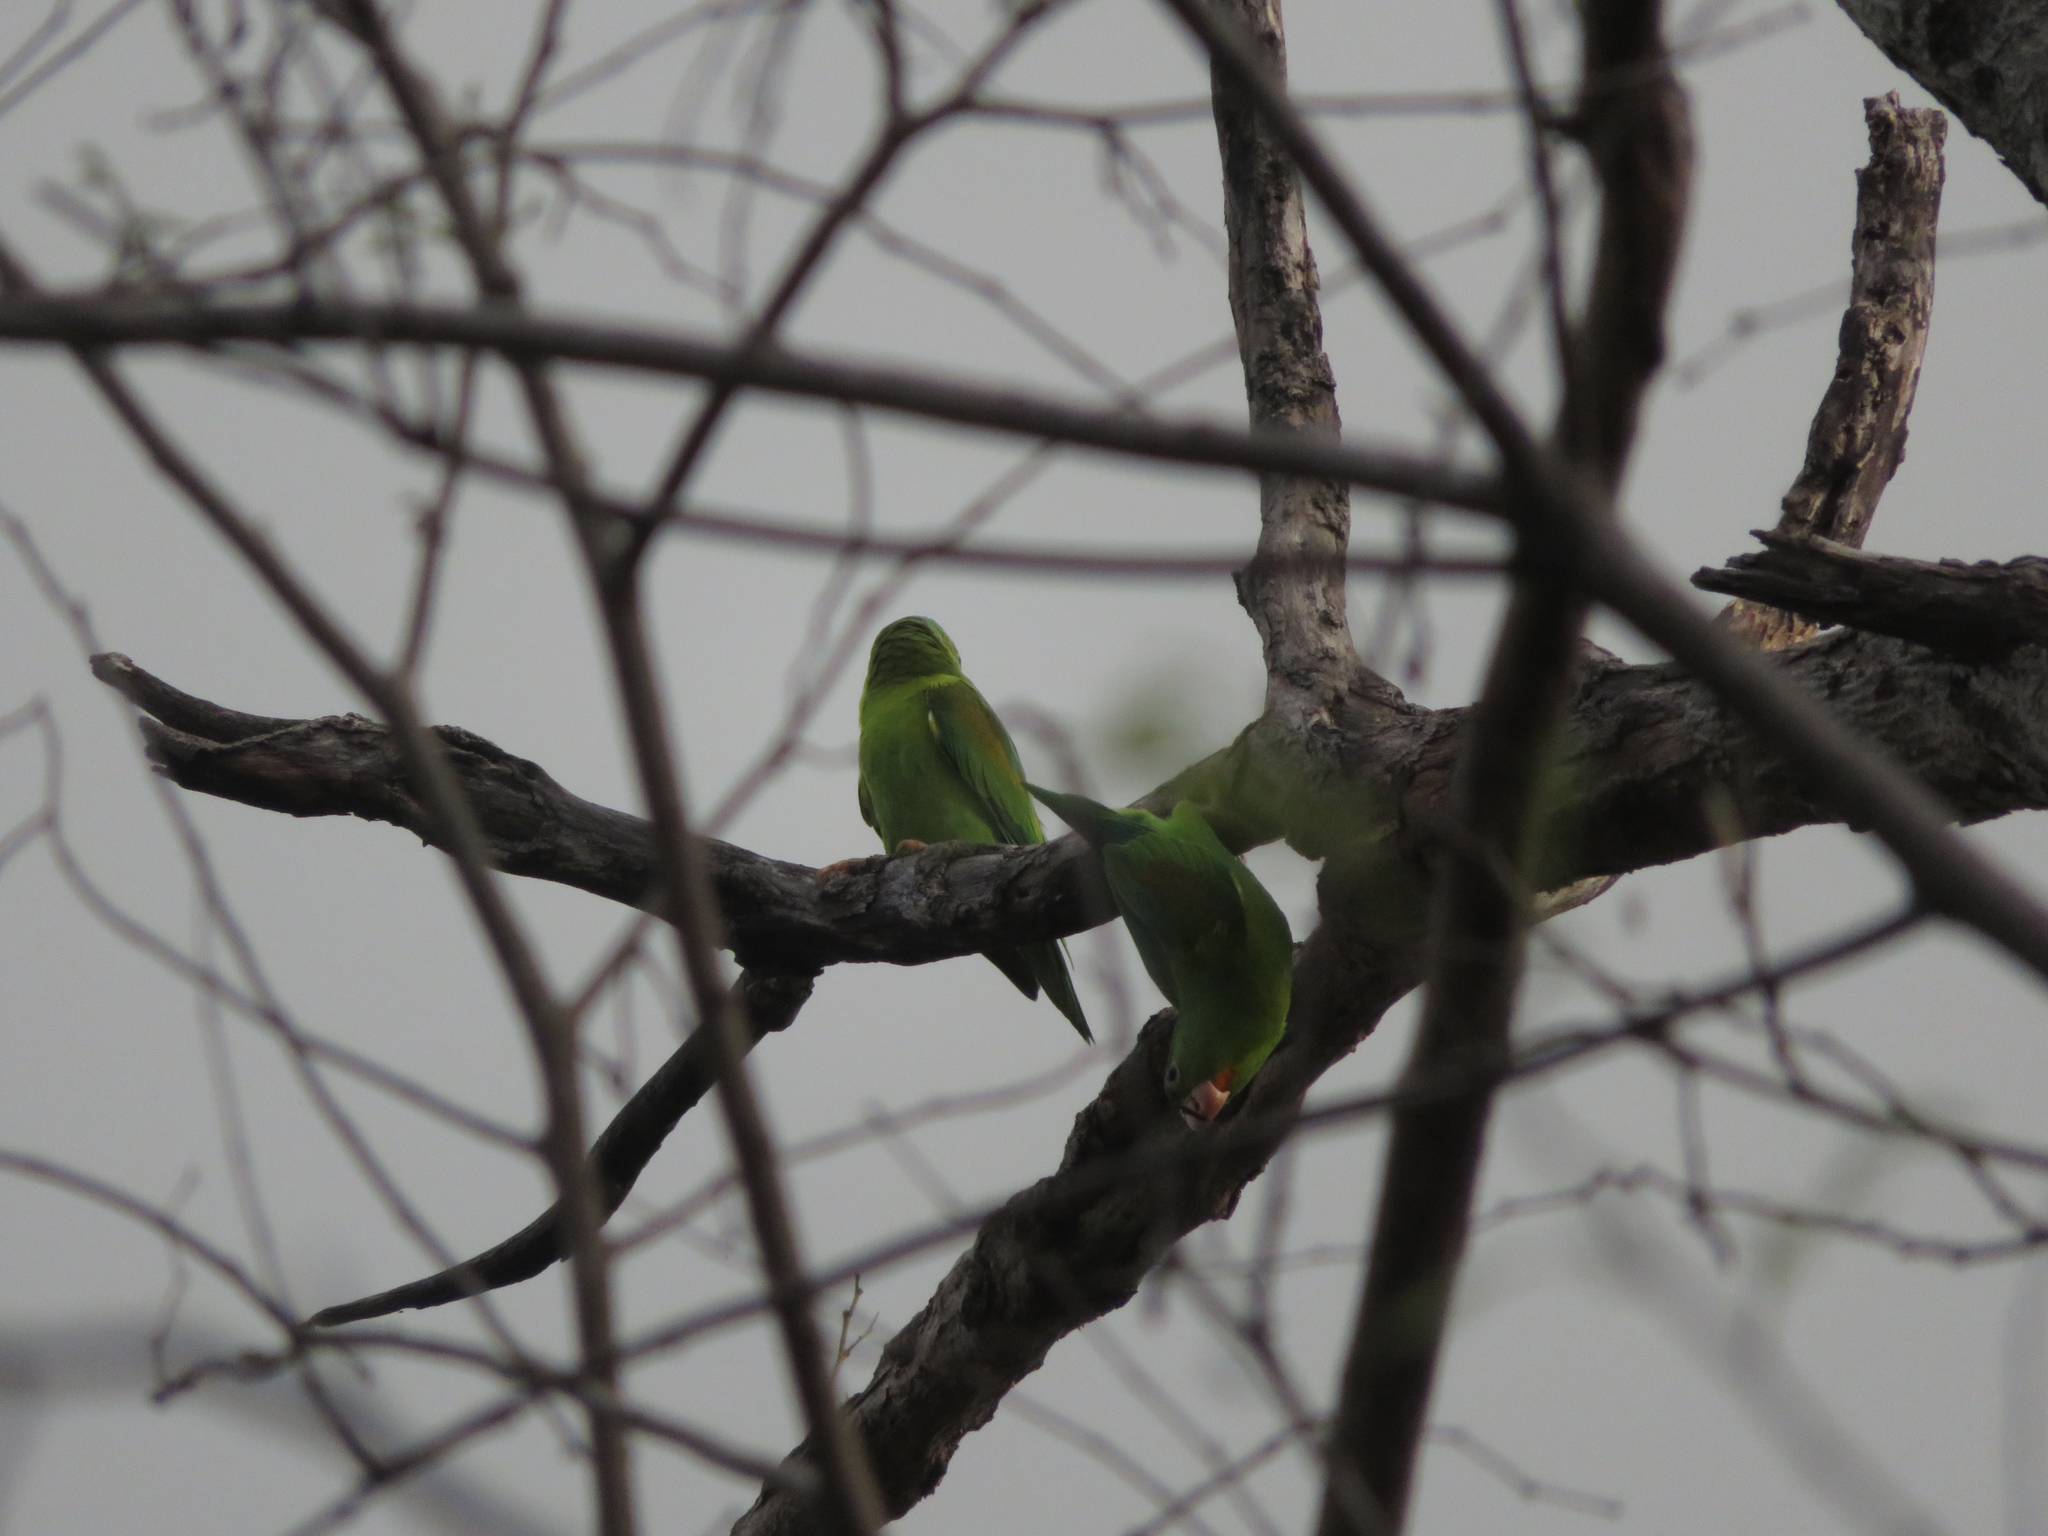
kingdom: Animalia
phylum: Chordata
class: Aves
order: Psittaciformes
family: Psittacidae
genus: Brotogeris
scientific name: Brotogeris jugularis
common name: Orange-chinned parakeet
